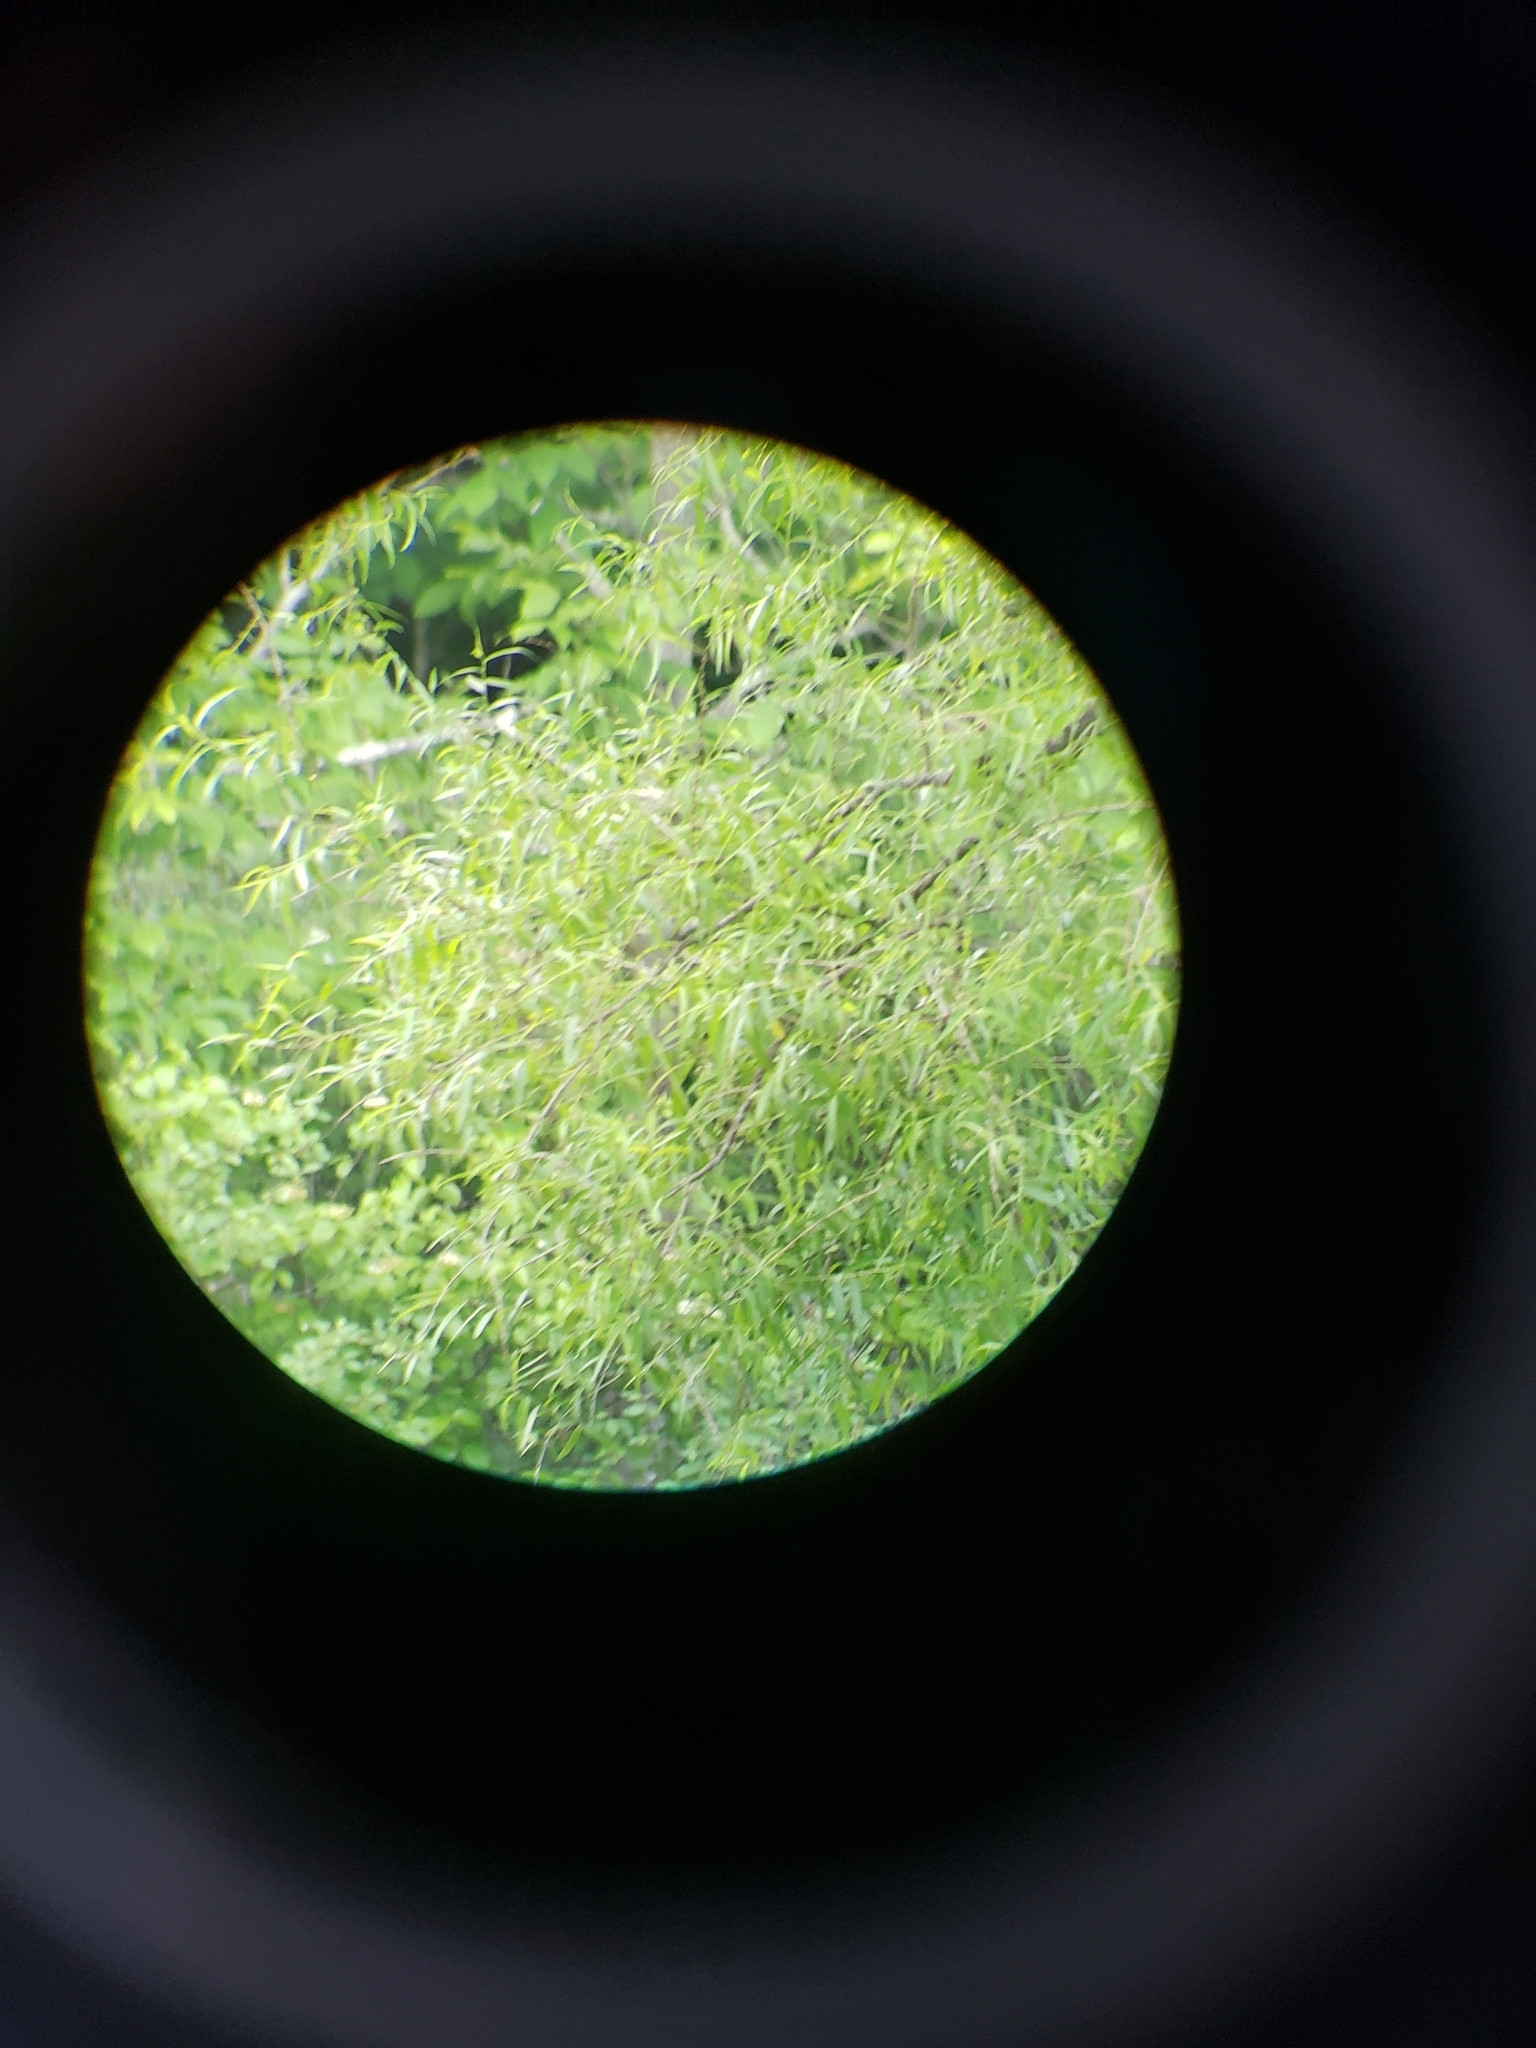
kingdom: Animalia
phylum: Chordata
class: Aves
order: Passeriformes
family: Passerellidae
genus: Melospiza
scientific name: Melospiza melodia
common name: Song sparrow
